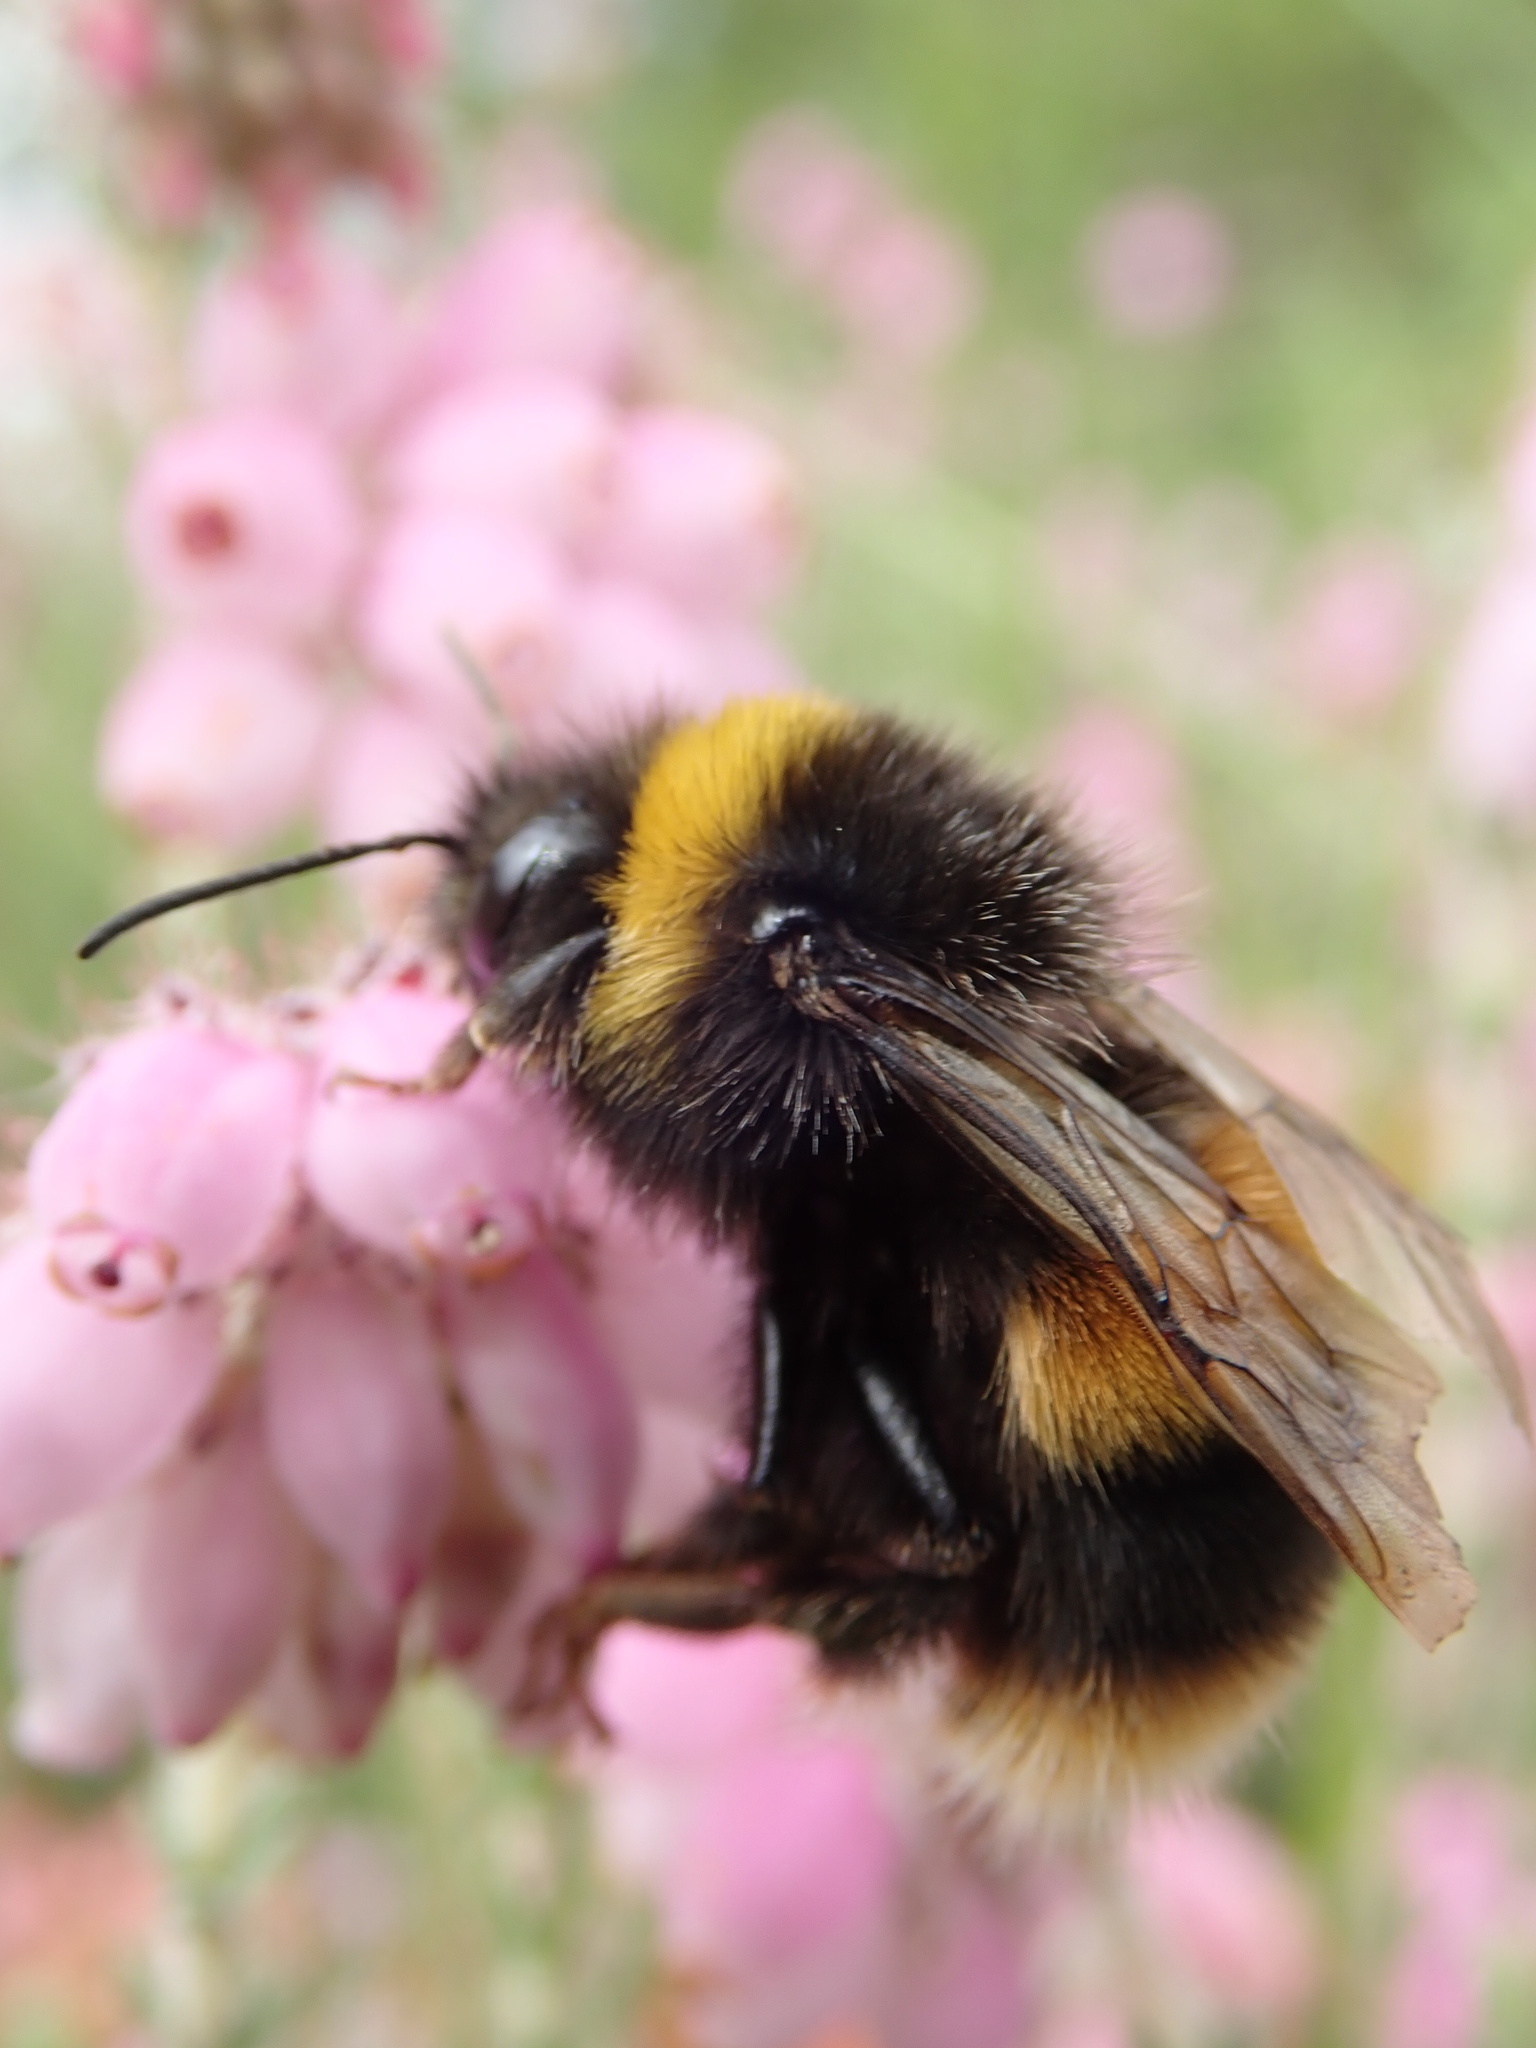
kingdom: Animalia
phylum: Arthropoda
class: Insecta
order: Hymenoptera
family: Apidae
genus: Bombus
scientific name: Bombus terrestris
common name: Buff-tailed bumblebee
